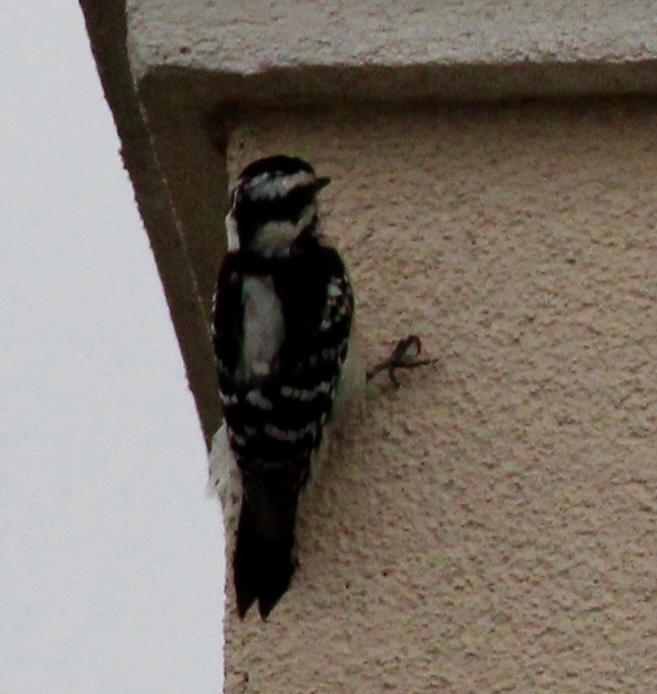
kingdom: Animalia
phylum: Chordata
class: Aves
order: Piciformes
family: Picidae
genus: Dryobates
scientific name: Dryobates pubescens
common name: Downy woodpecker
